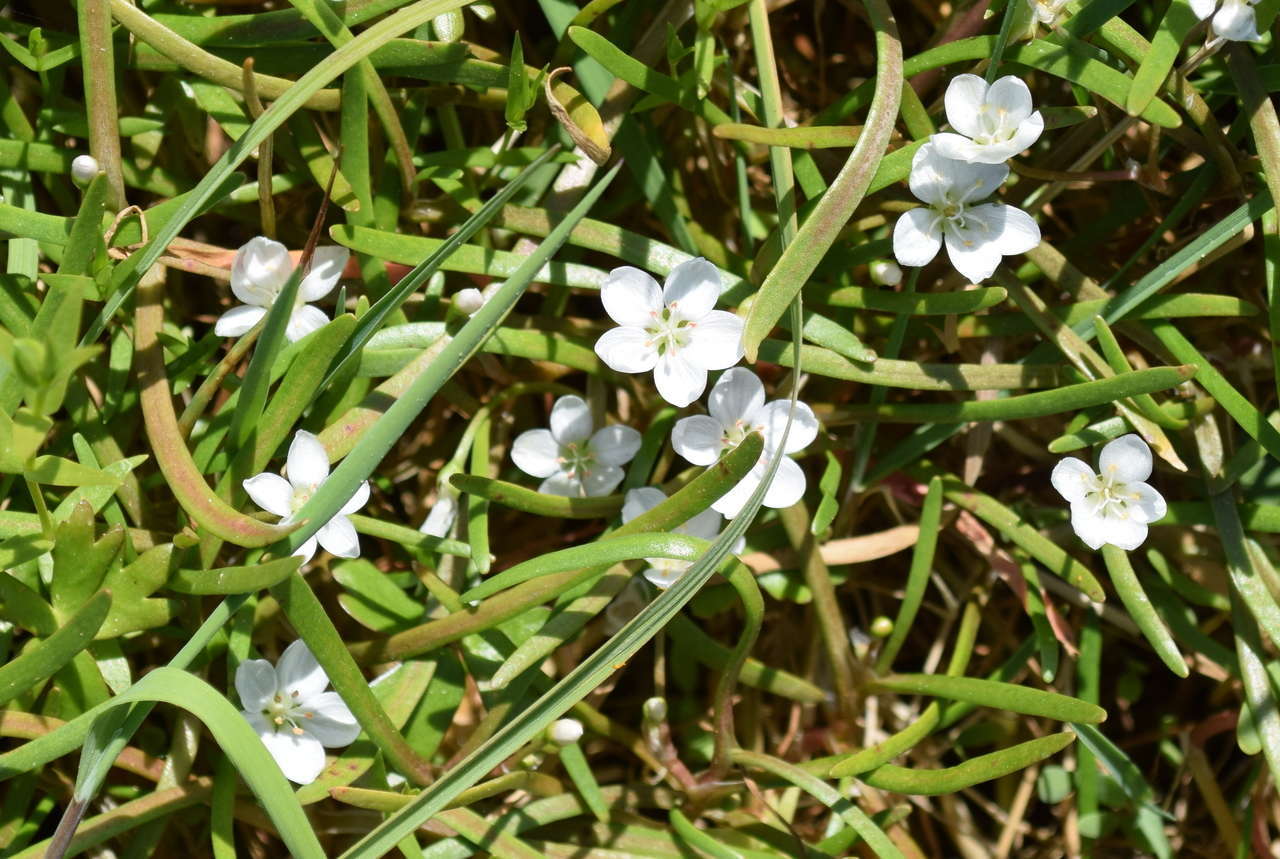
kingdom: Plantae
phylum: Tracheophyta
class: Magnoliopsida
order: Caryophyllales
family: Montiaceae
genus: Montia
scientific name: Montia australasica
